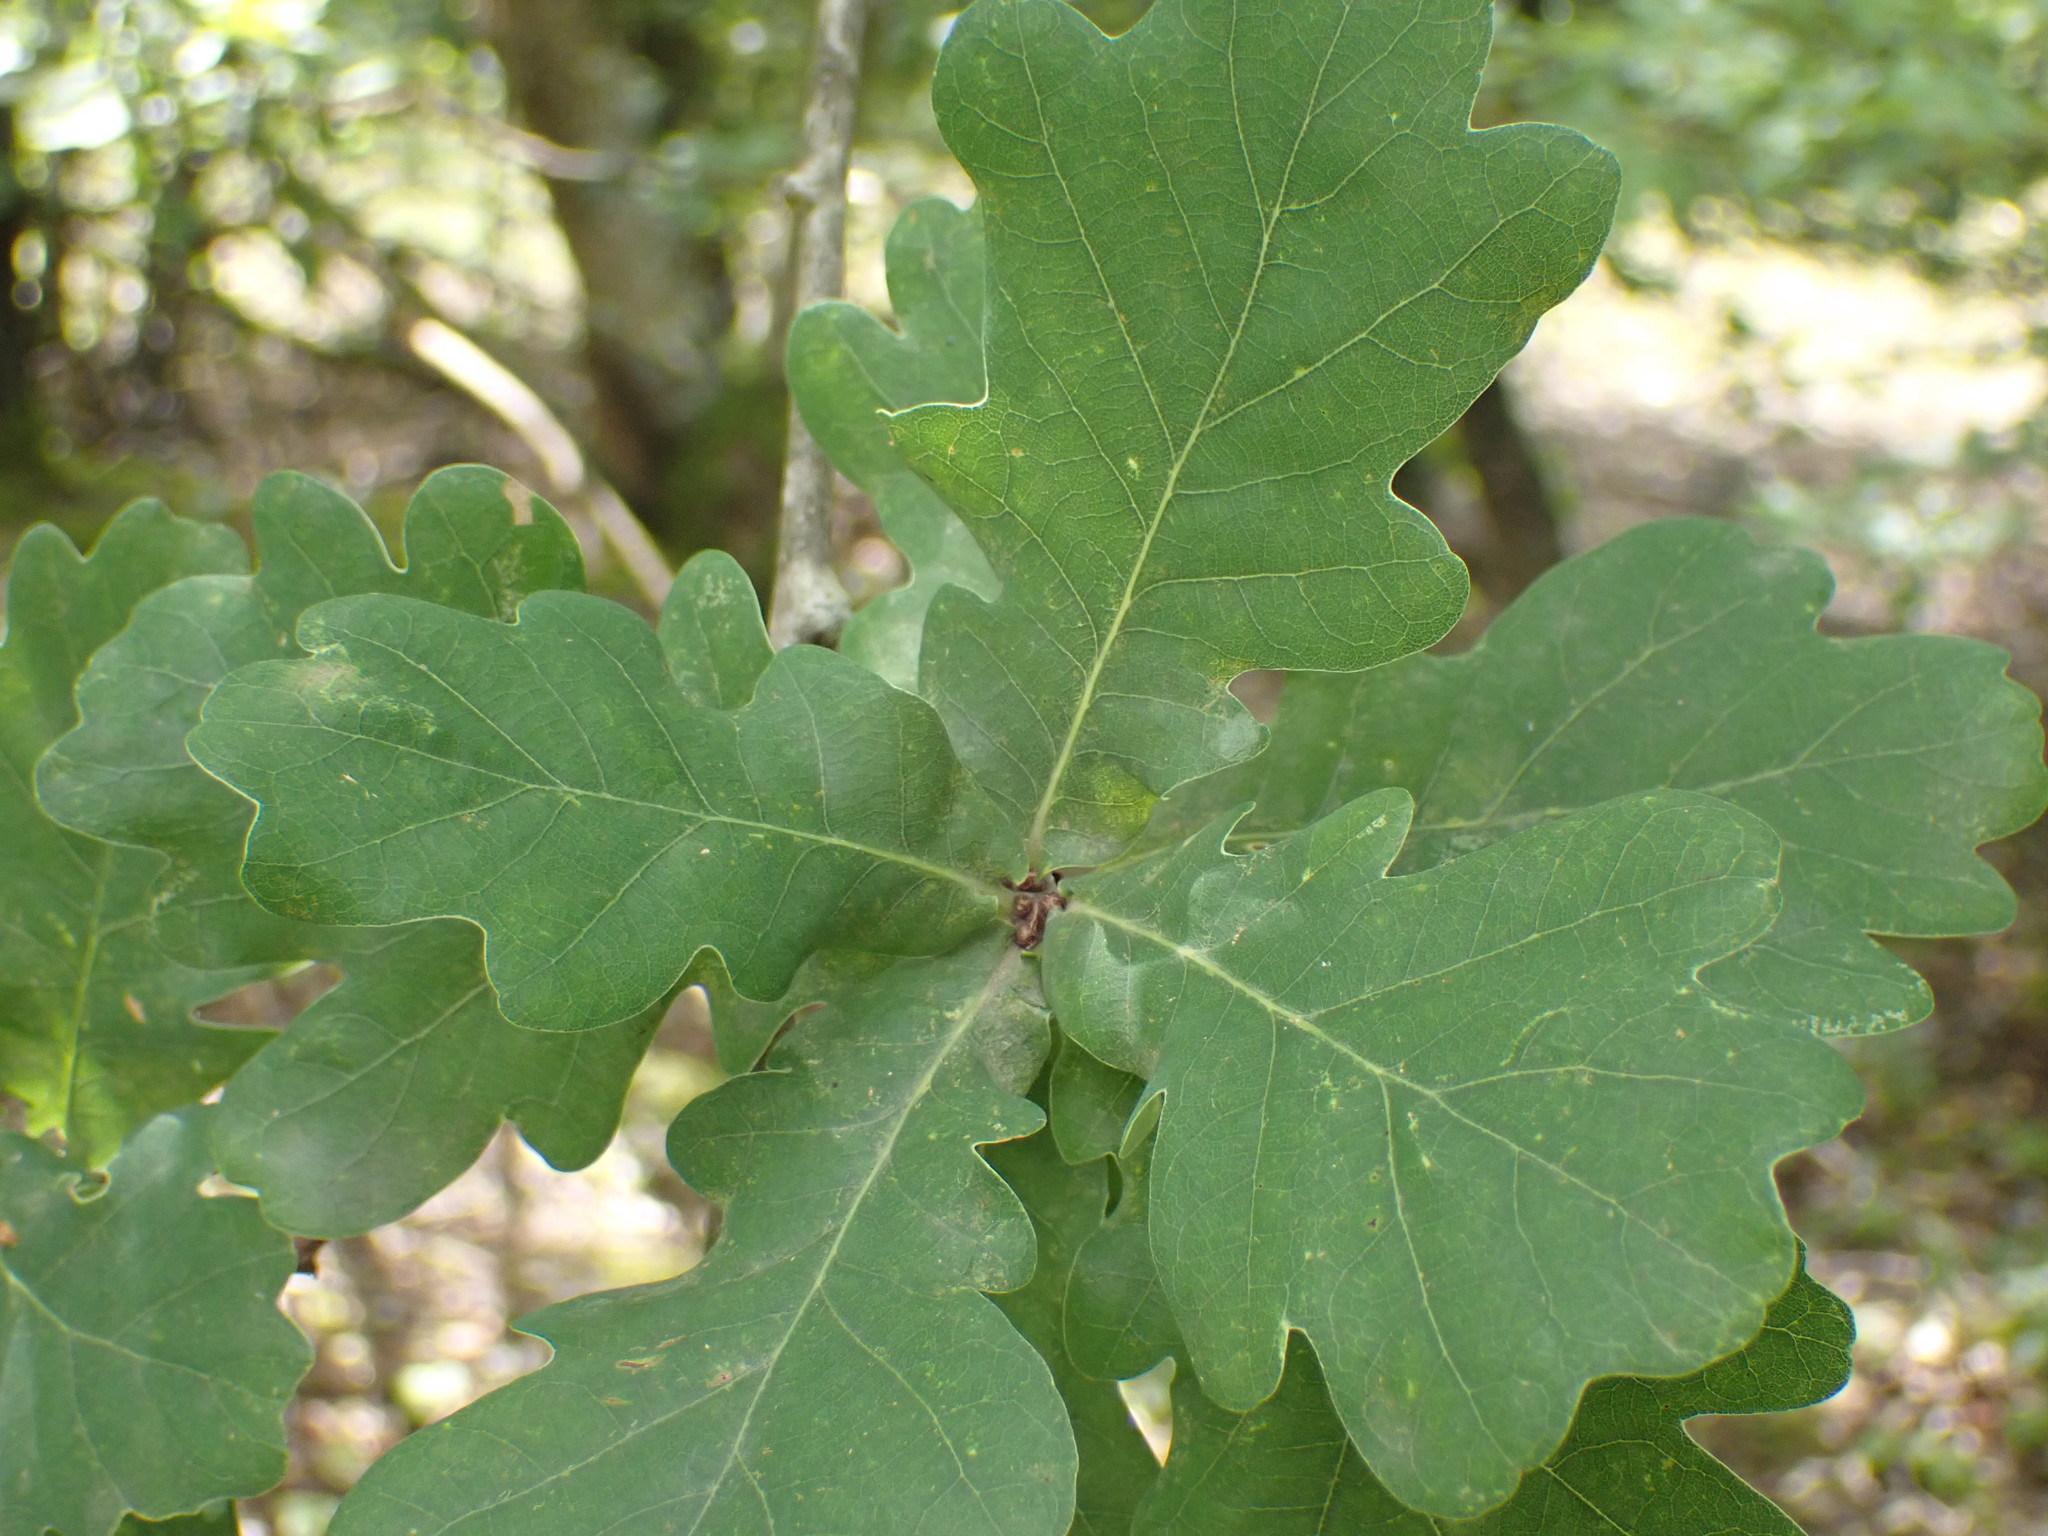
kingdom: Plantae
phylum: Tracheophyta
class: Magnoliopsida
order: Fagales
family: Fagaceae
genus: Quercus
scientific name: Quercus robur
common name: Pedunculate oak
